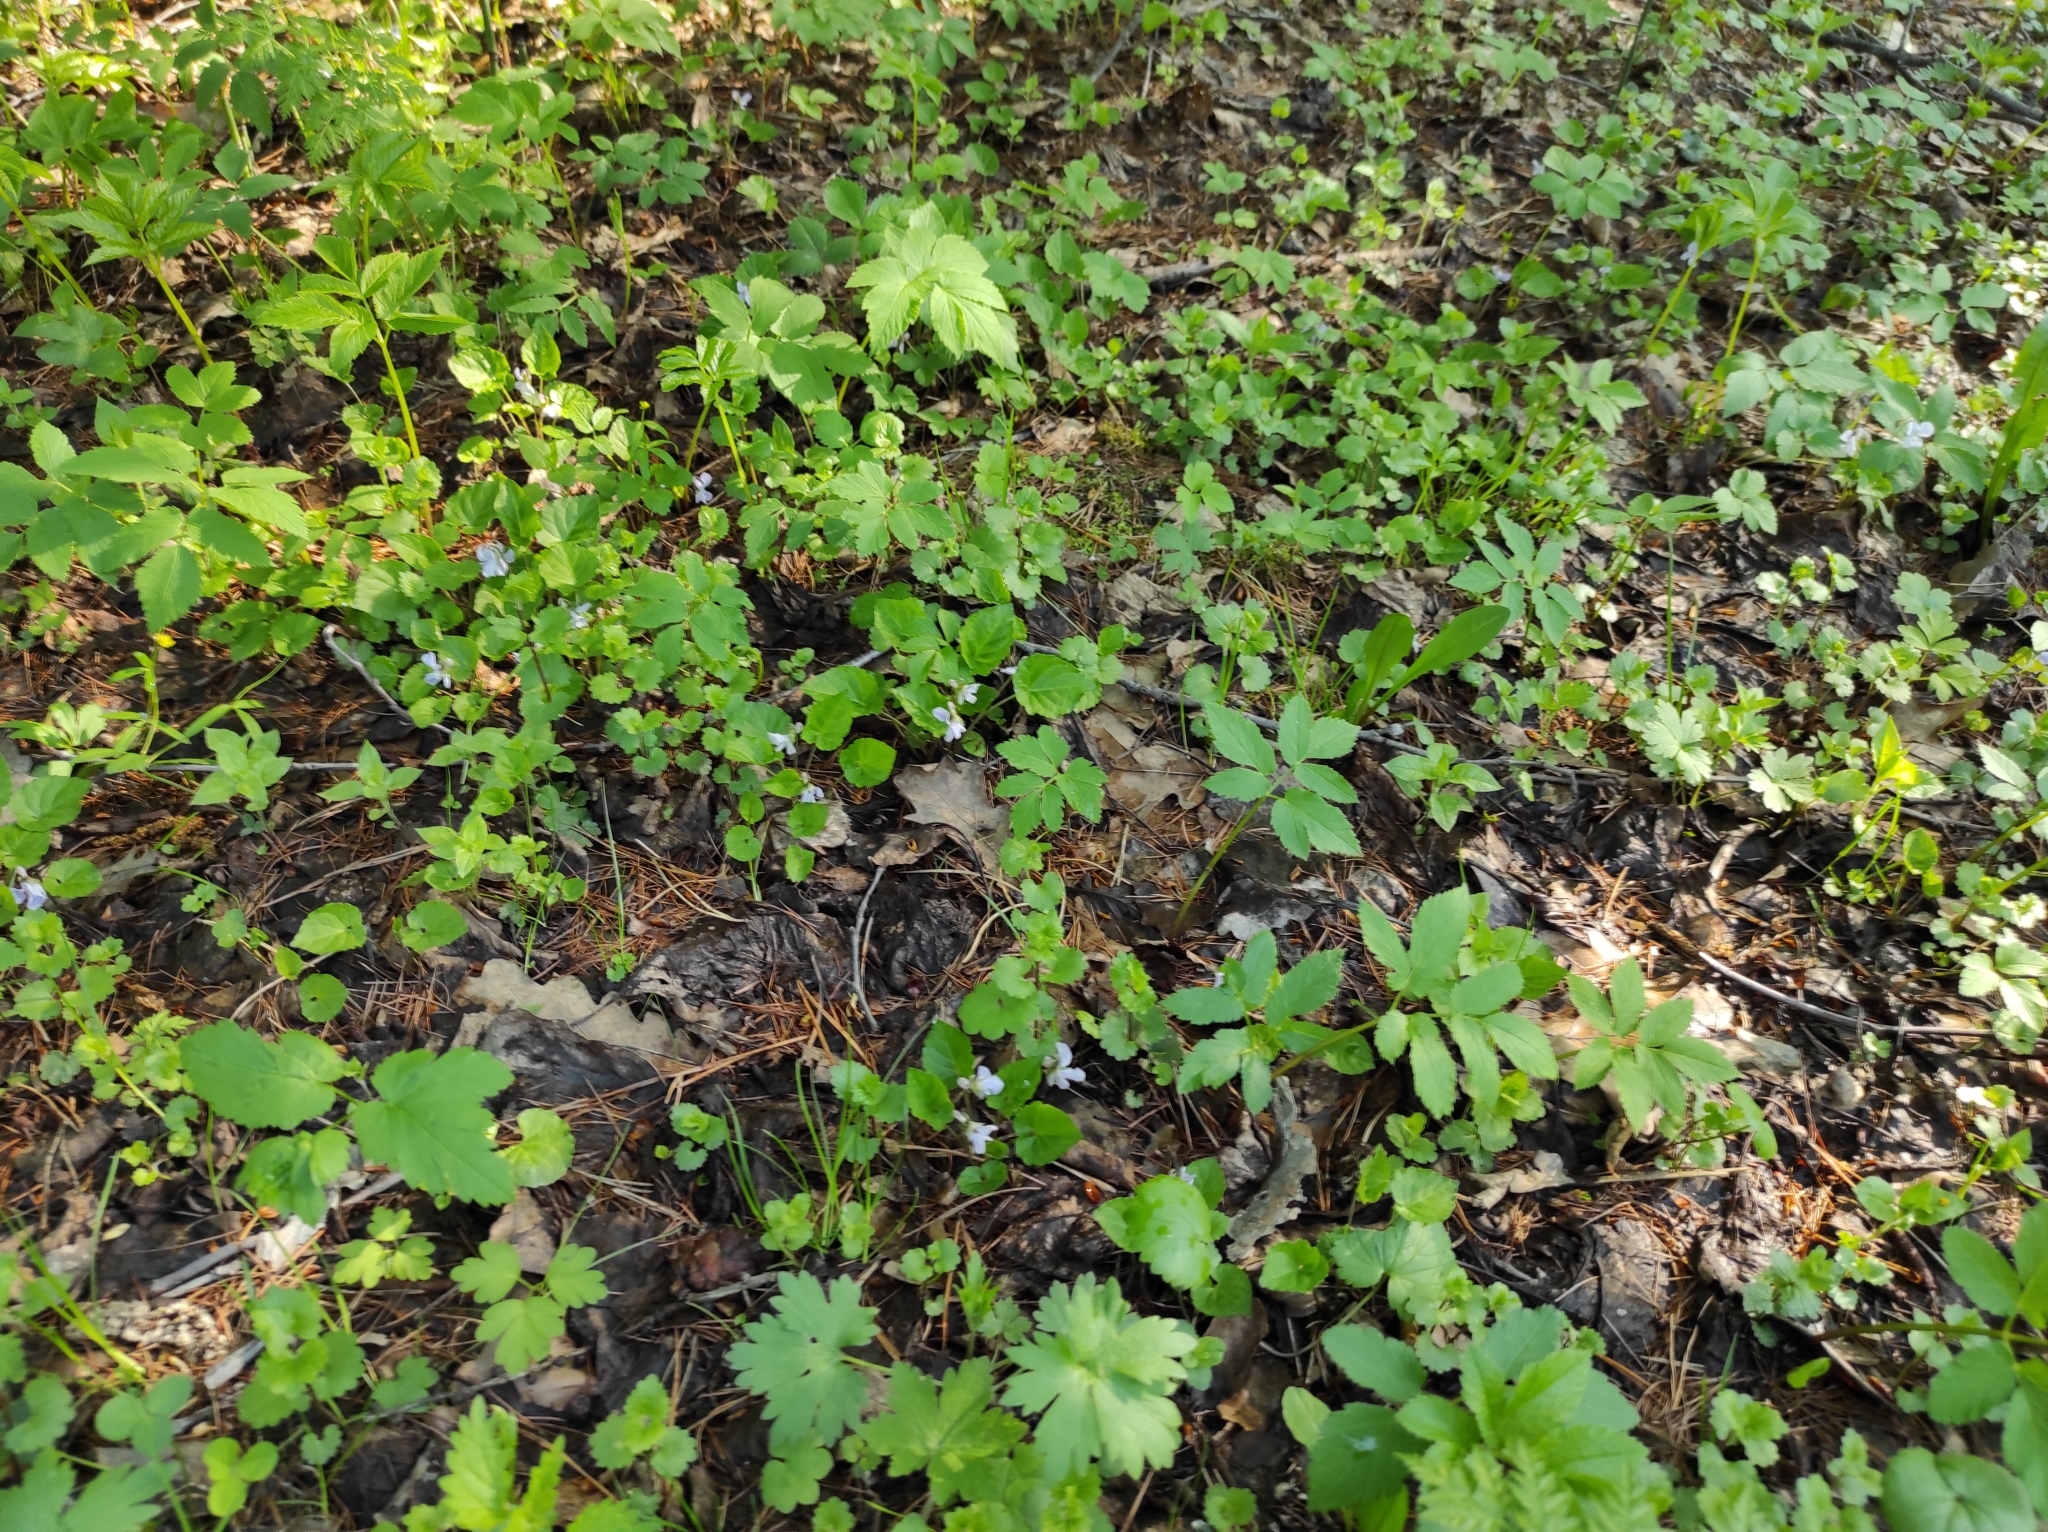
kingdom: Plantae
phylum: Tracheophyta
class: Magnoliopsida
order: Malpighiales
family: Violaceae
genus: Viola
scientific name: Viola selkirkii
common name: Selkirk's violet
